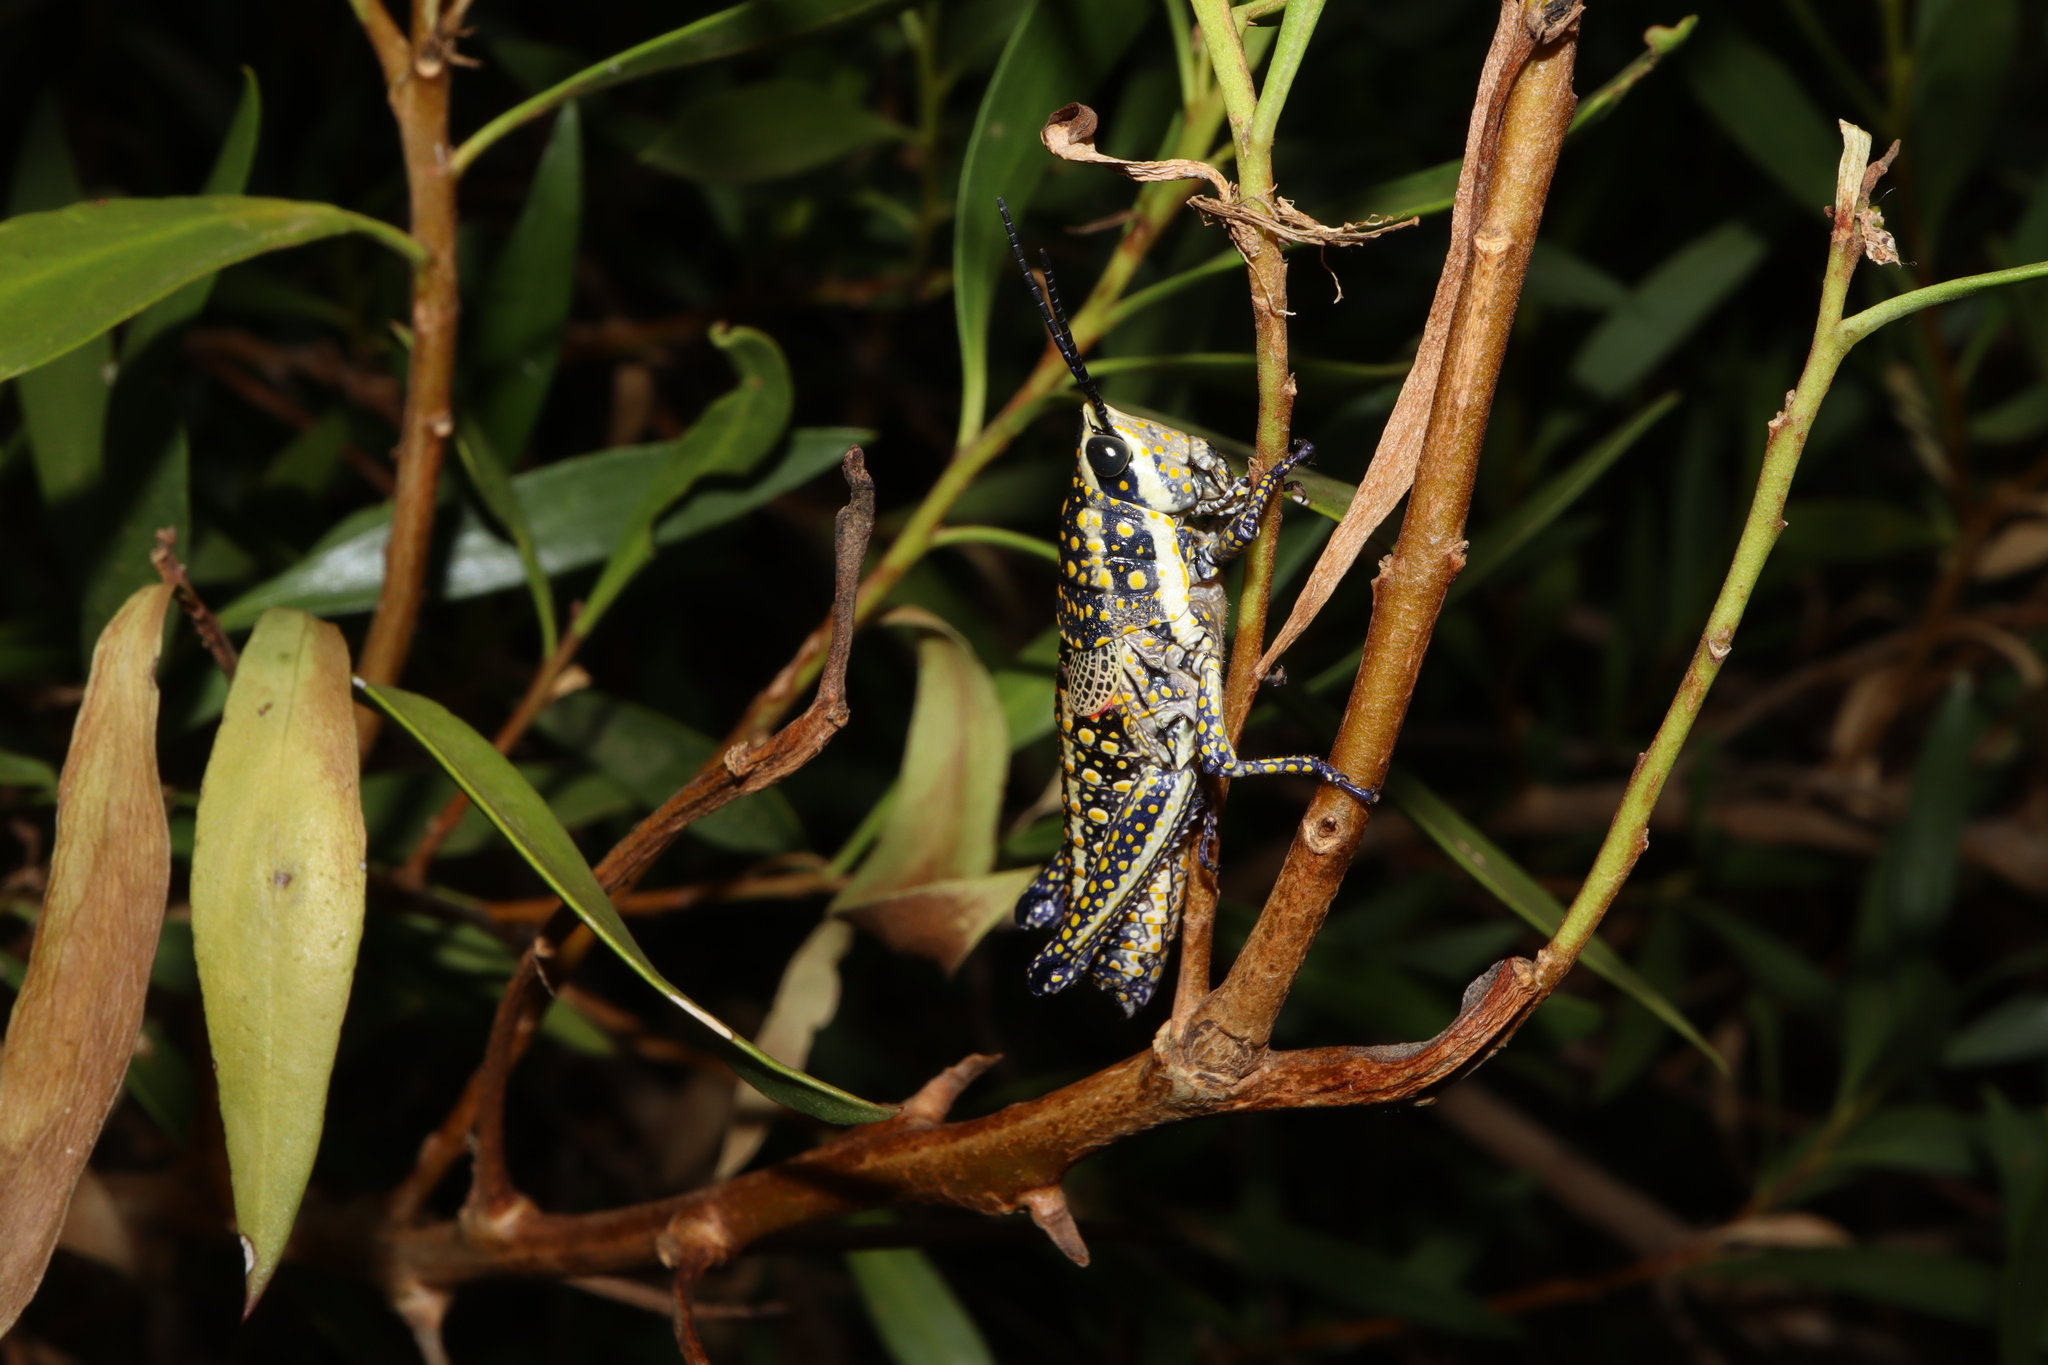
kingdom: Animalia
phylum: Arthropoda
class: Insecta
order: Orthoptera
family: Pyrgomorphidae
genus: Monistria
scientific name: Monistria pustulifera
